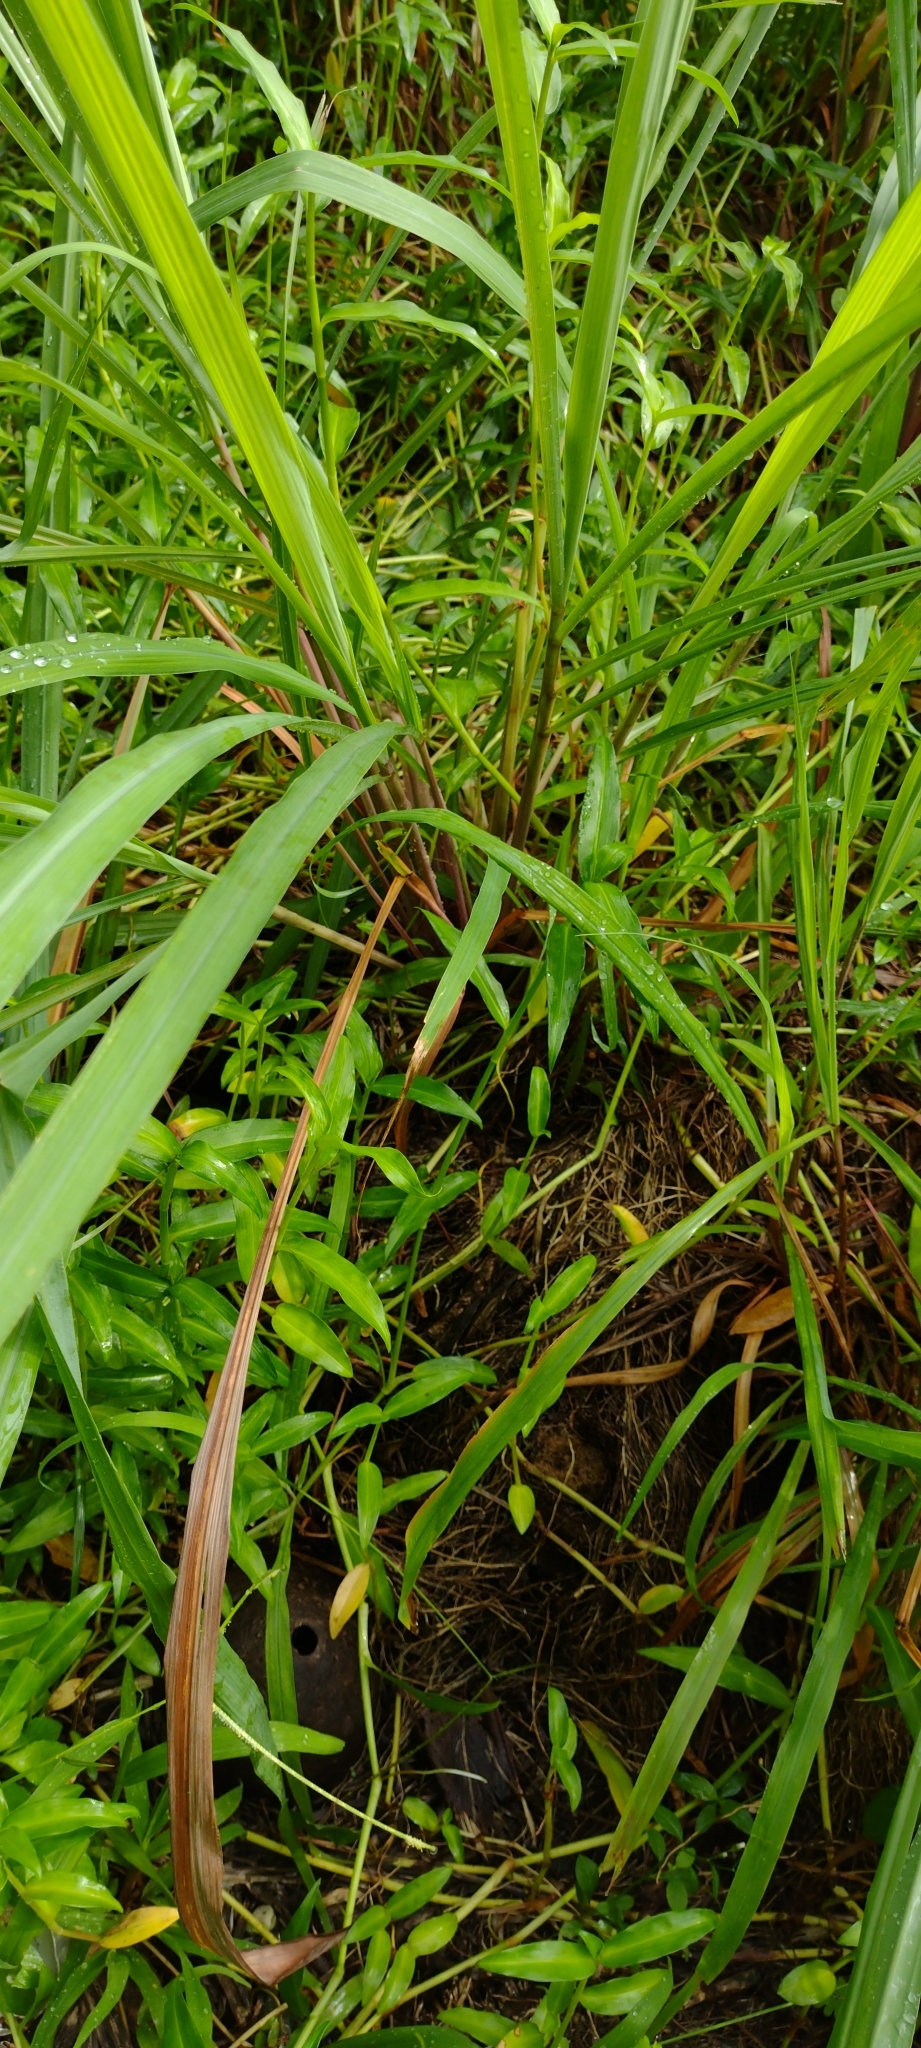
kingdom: Plantae
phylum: Tracheophyta
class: Liliopsida
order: Poales
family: Poaceae
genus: Cymbopogon
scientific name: Cymbopogon citratus
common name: Lemon grass
